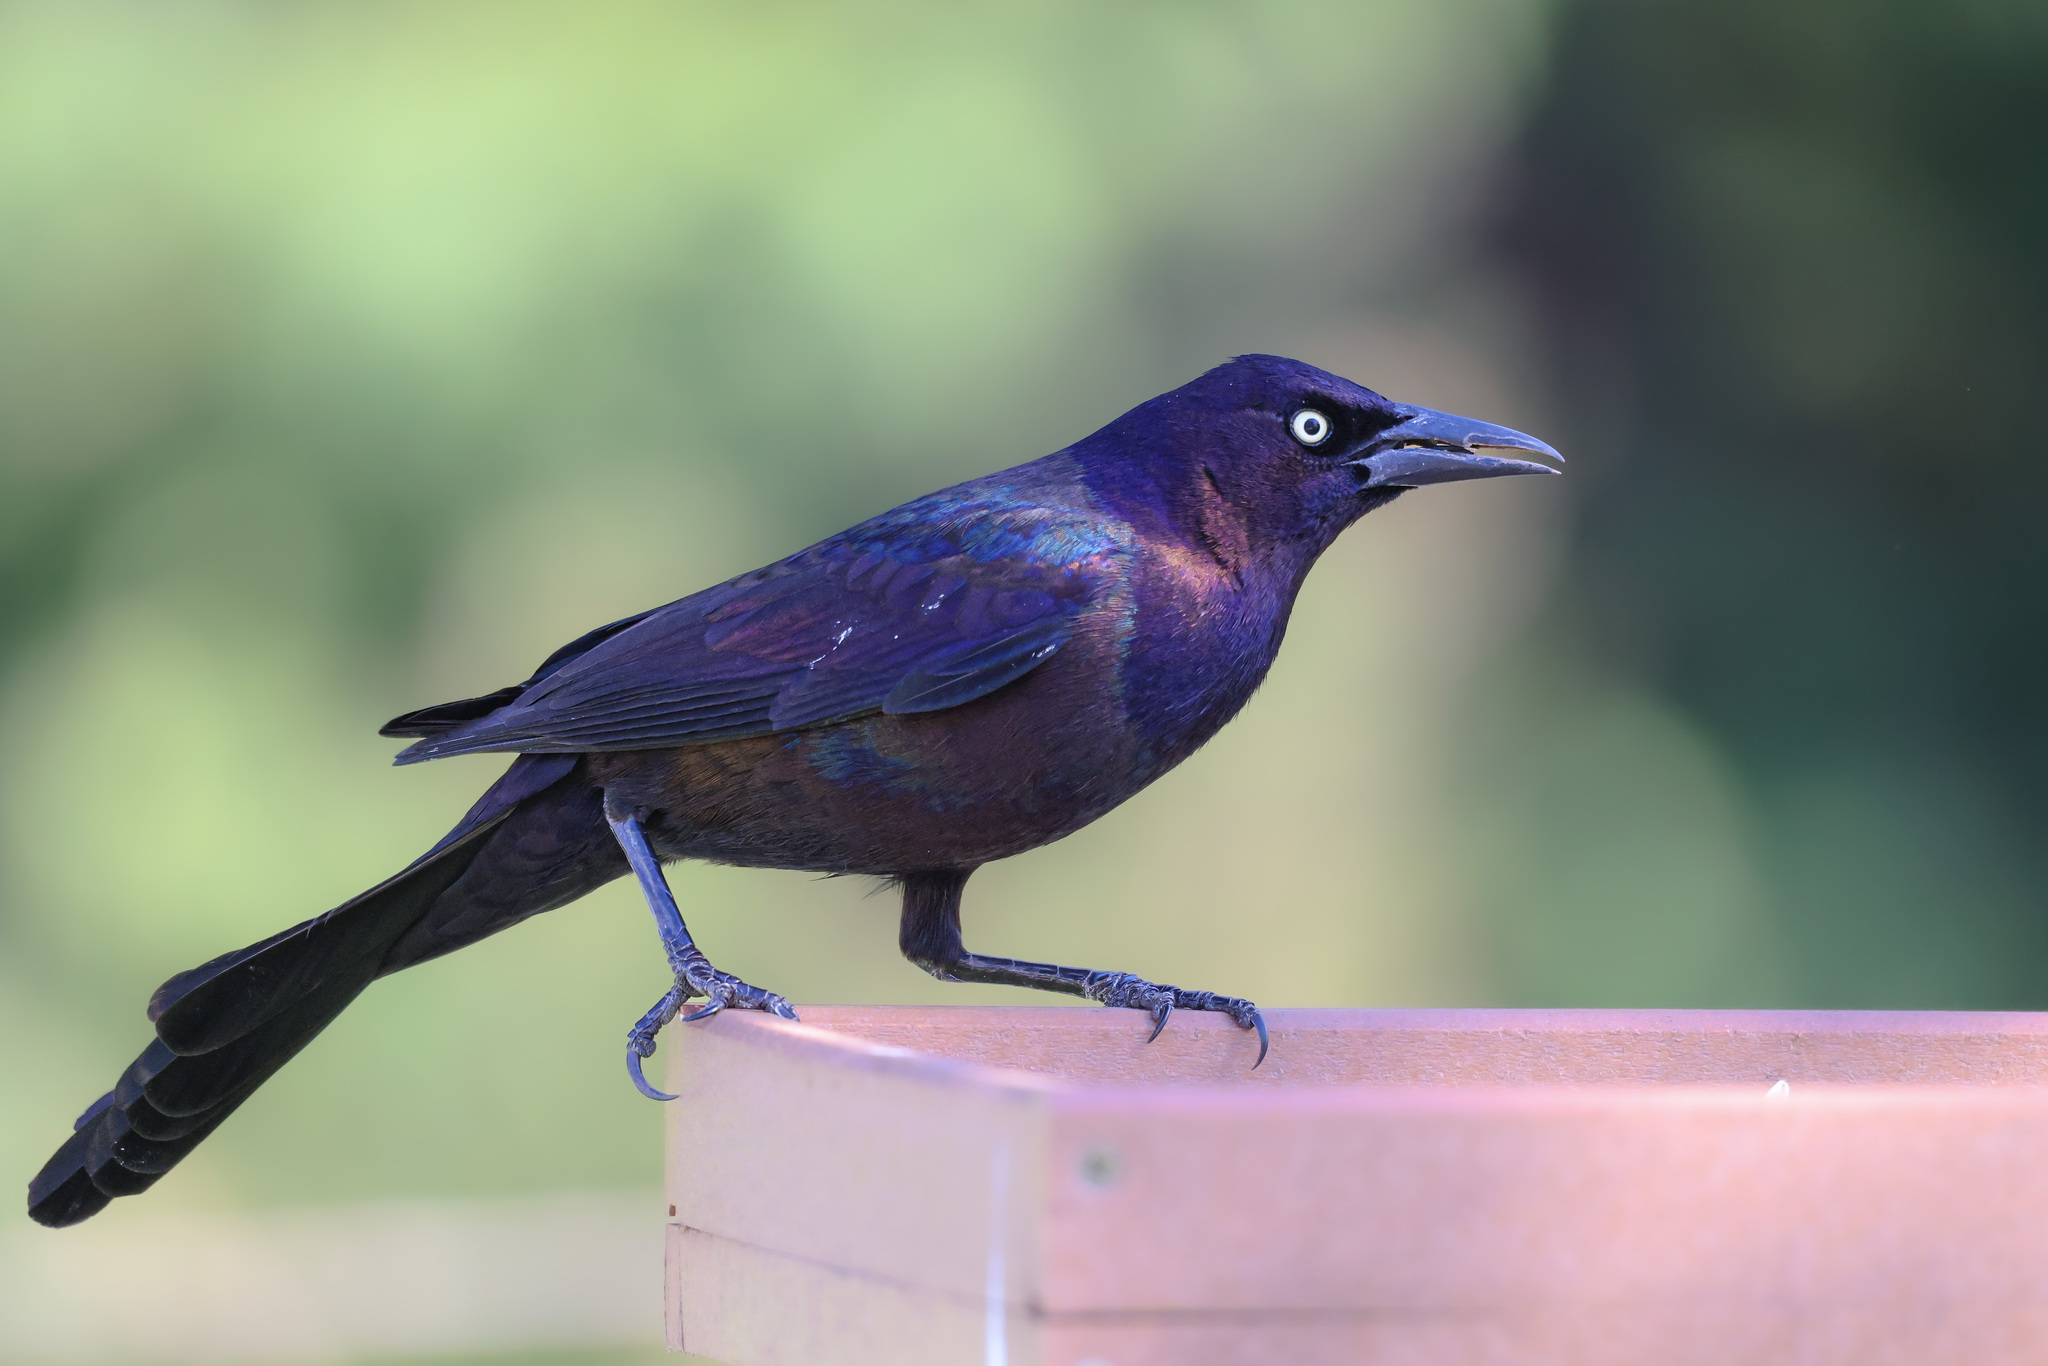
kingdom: Animalia
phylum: Chordata
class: Aves
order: Passeriformes
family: Icteridae
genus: Quiscalus
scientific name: Quiscalus quiscula
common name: Common grackle
